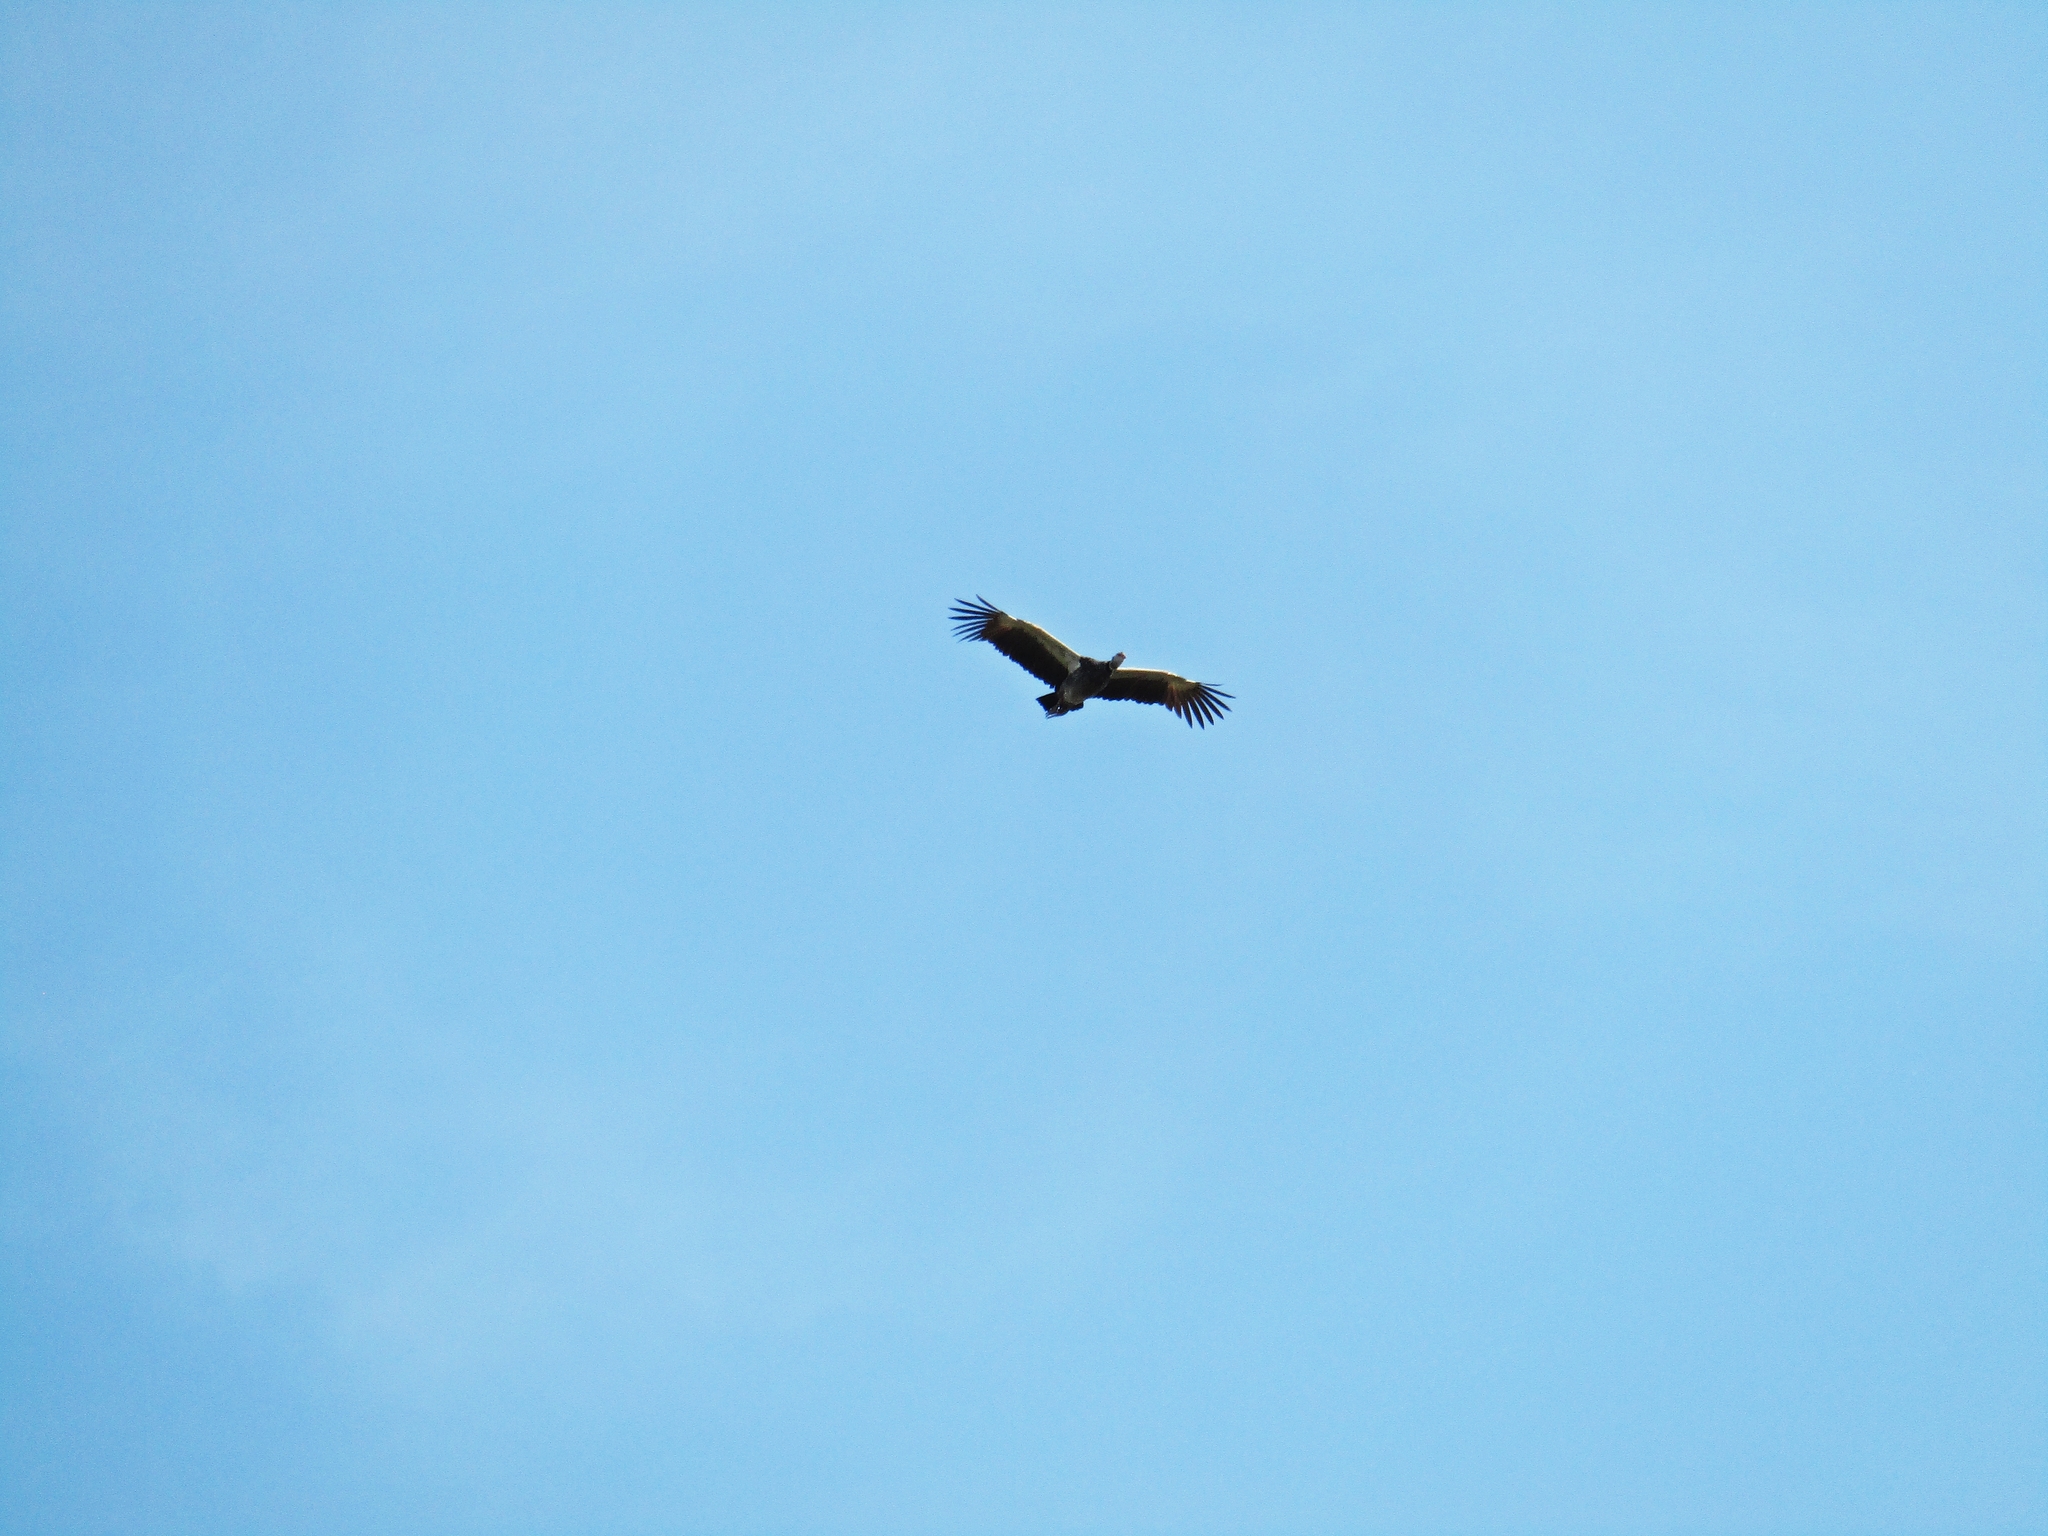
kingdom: Animalia
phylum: Chordata
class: Aves
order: Anseriformes
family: Anhimidae
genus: Chauna
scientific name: Chauna torquata
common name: Southern screamer
